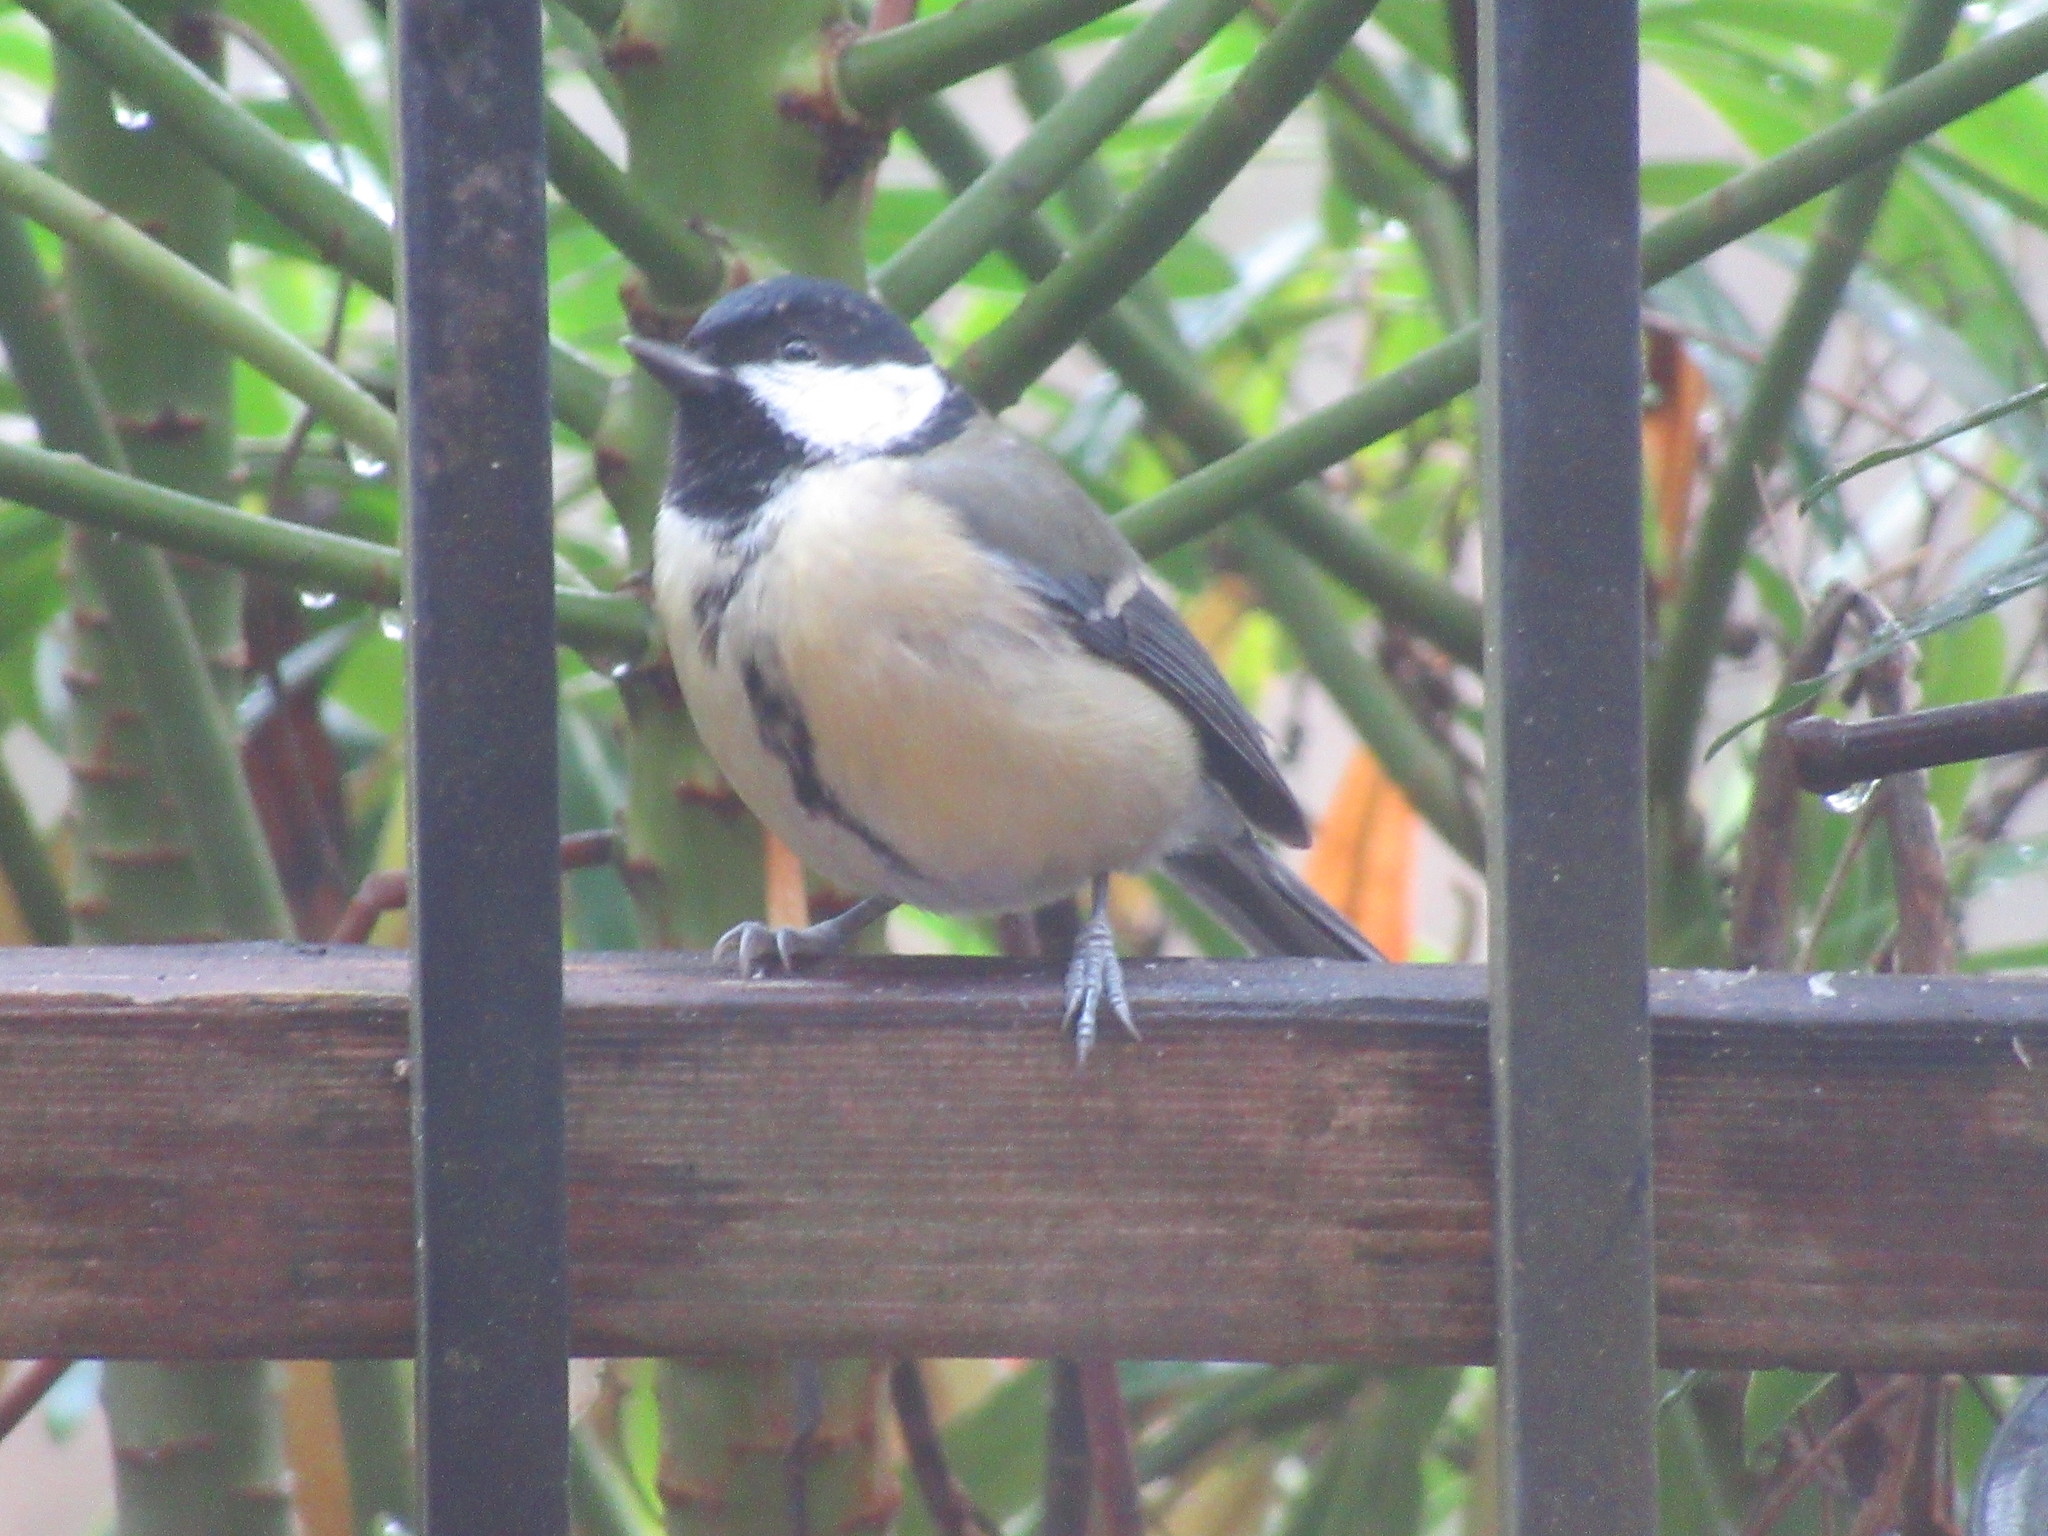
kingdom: Animalia
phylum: Chordata
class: Aves
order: Passeriformes
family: Paridae
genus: Parus
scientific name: Parus major
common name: Great tit
